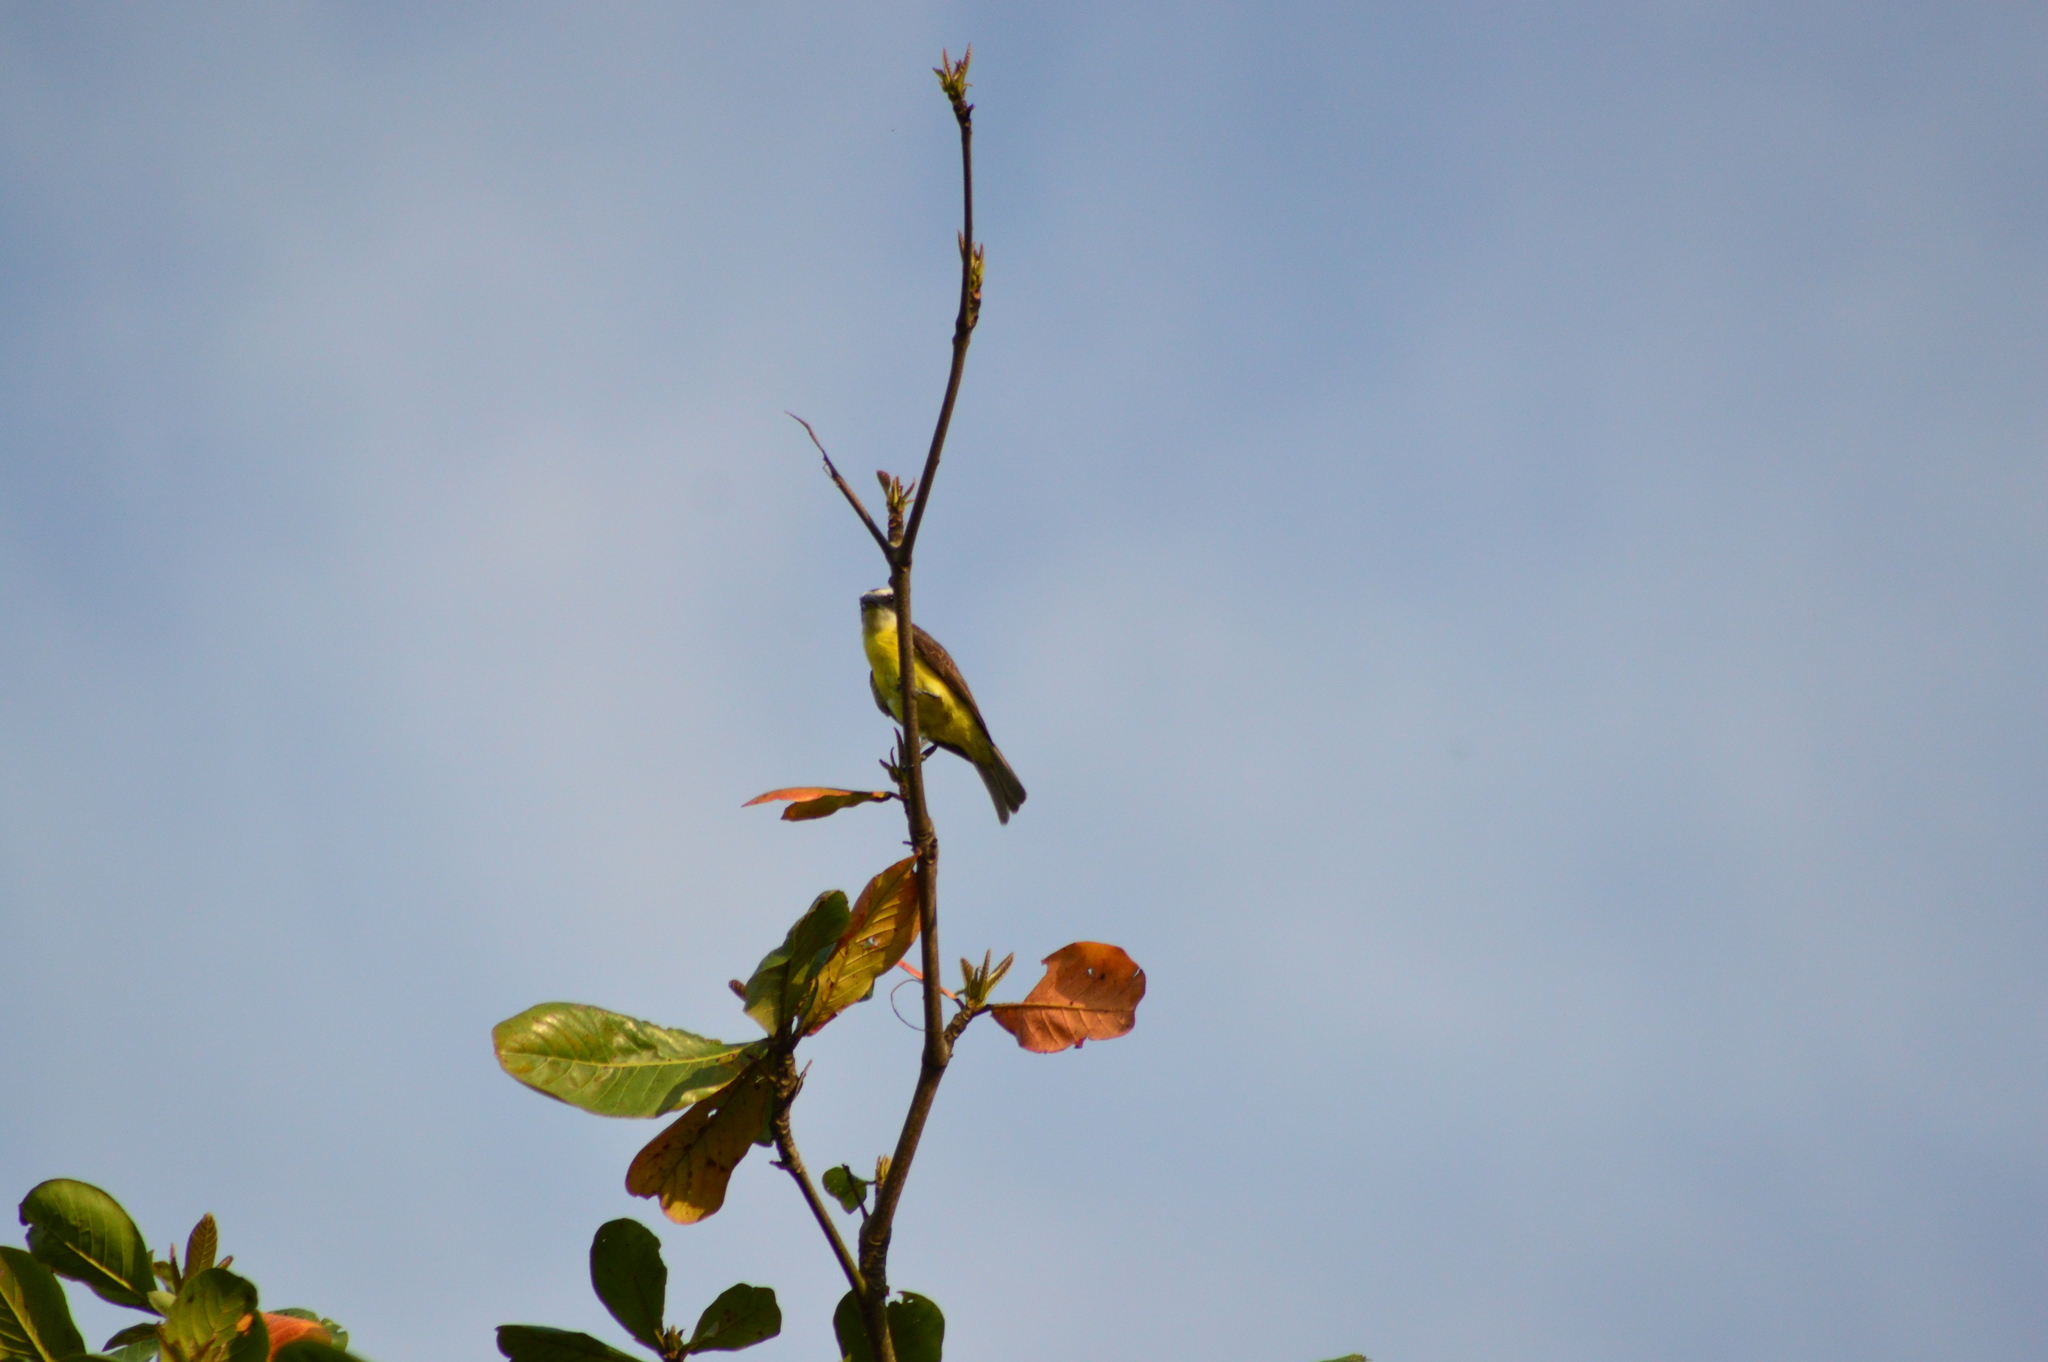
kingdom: Animalia
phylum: Chordata
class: Aves
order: Passeriformes
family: Tyrannidae
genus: Myiozetetes
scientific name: Myiozetetes similis
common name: Social flycatcher
